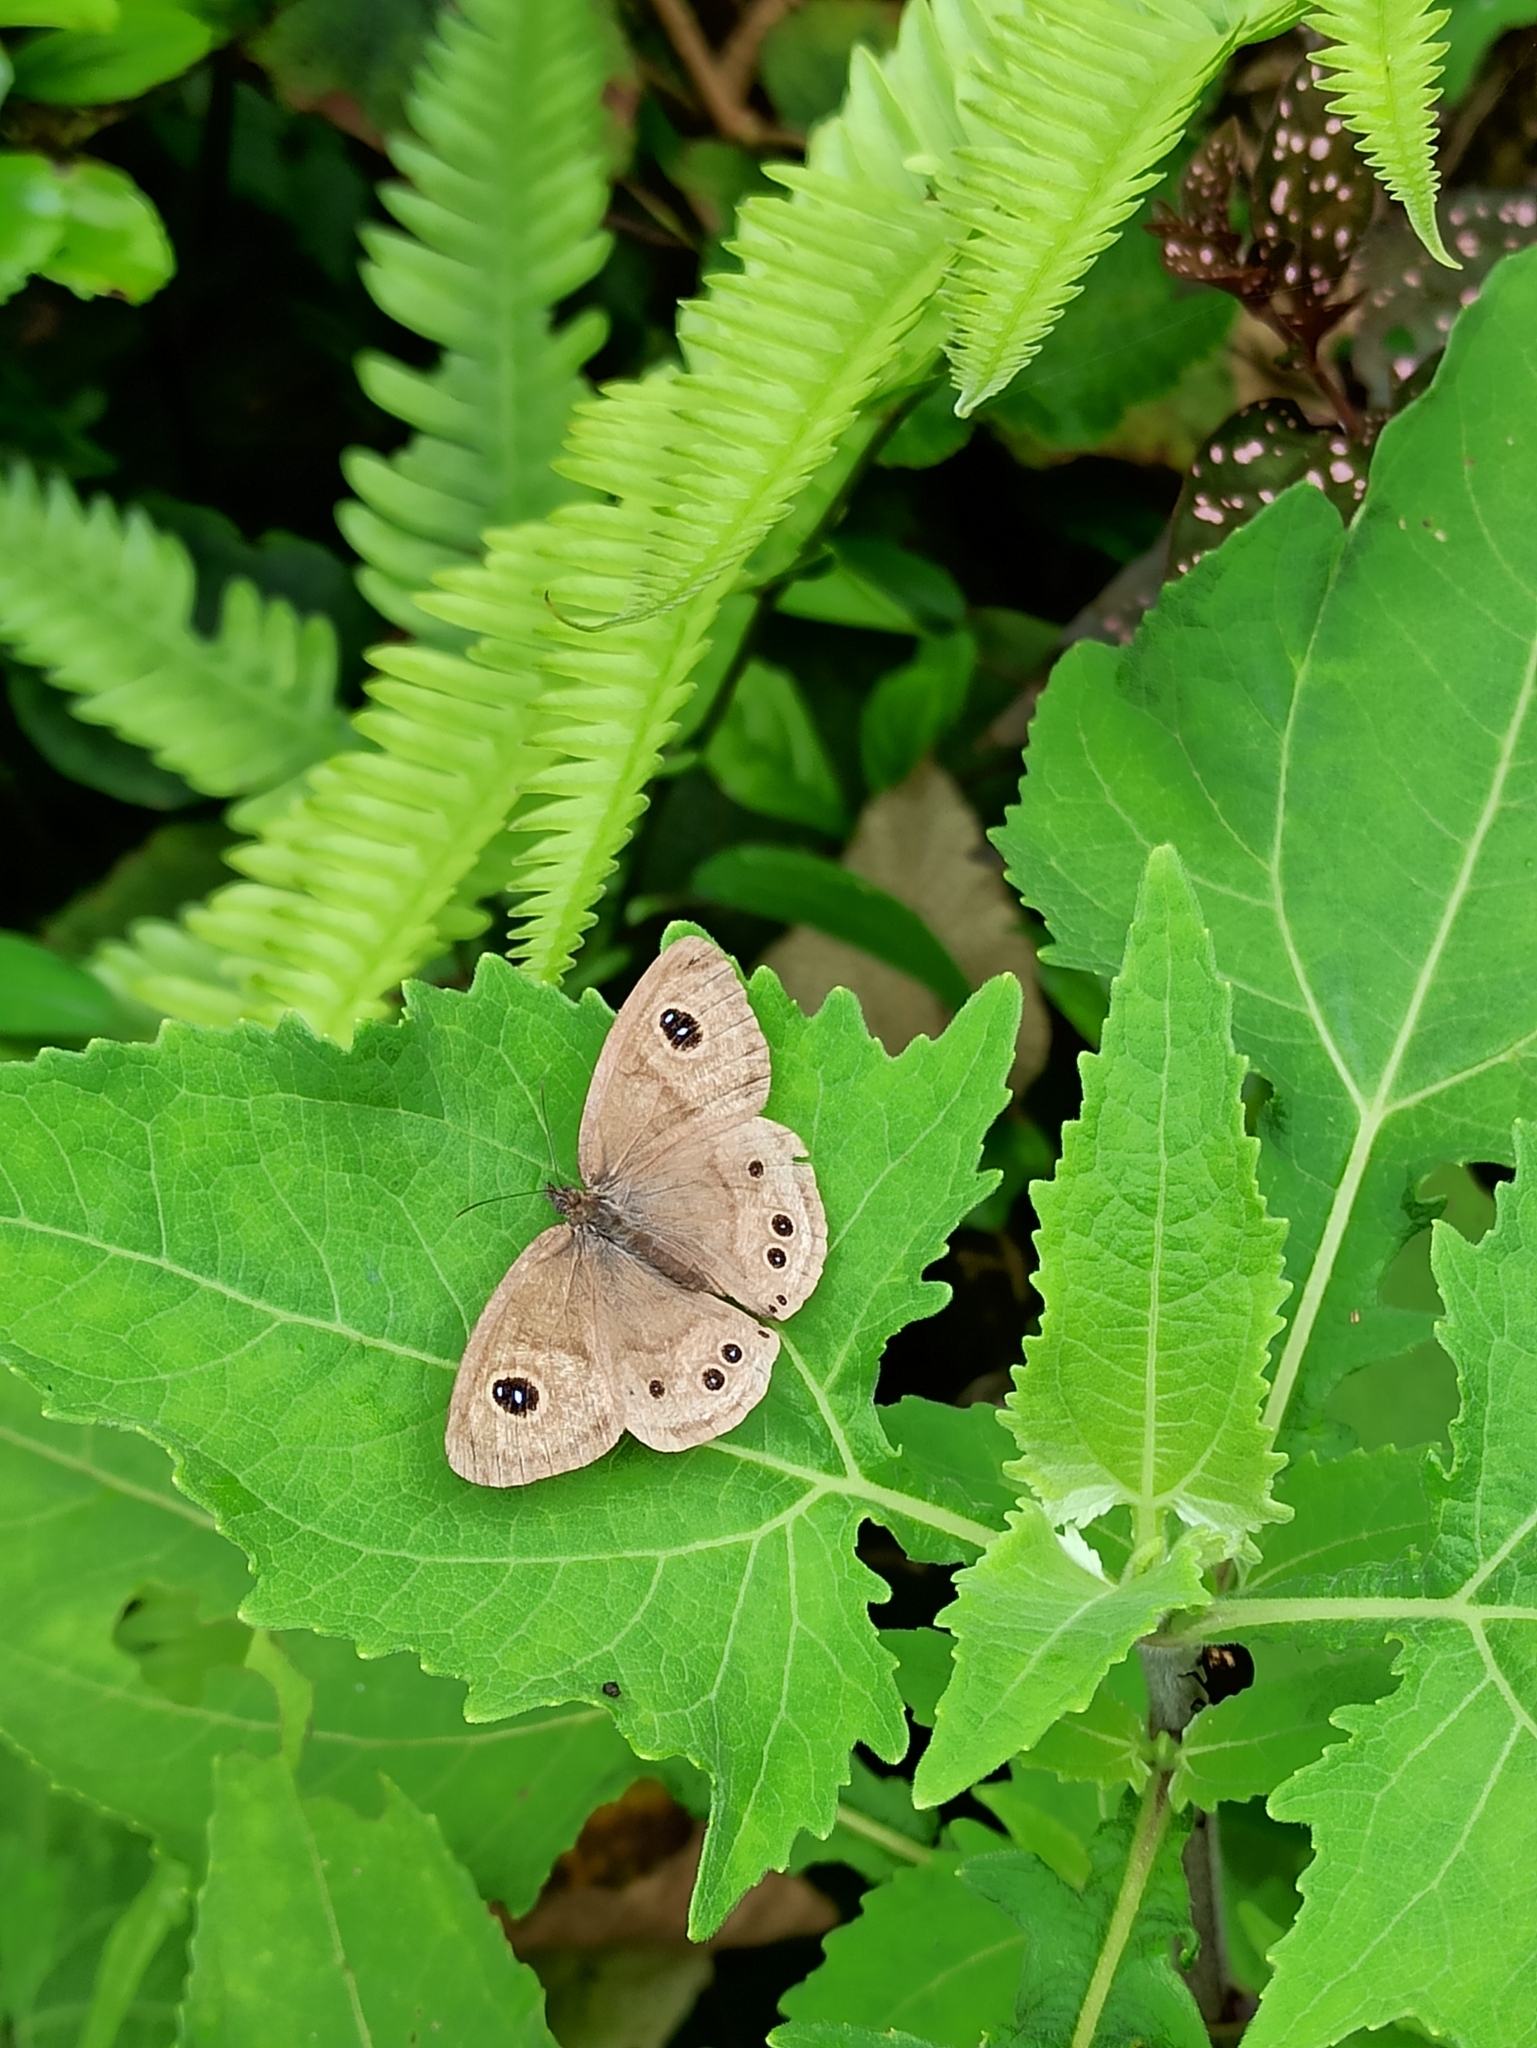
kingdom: Animalia
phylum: Arthropoda
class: Insecta
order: Lepidoptera
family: Nymphalidae
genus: Ypthima
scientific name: Ypthima baldus
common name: Common five-ring
